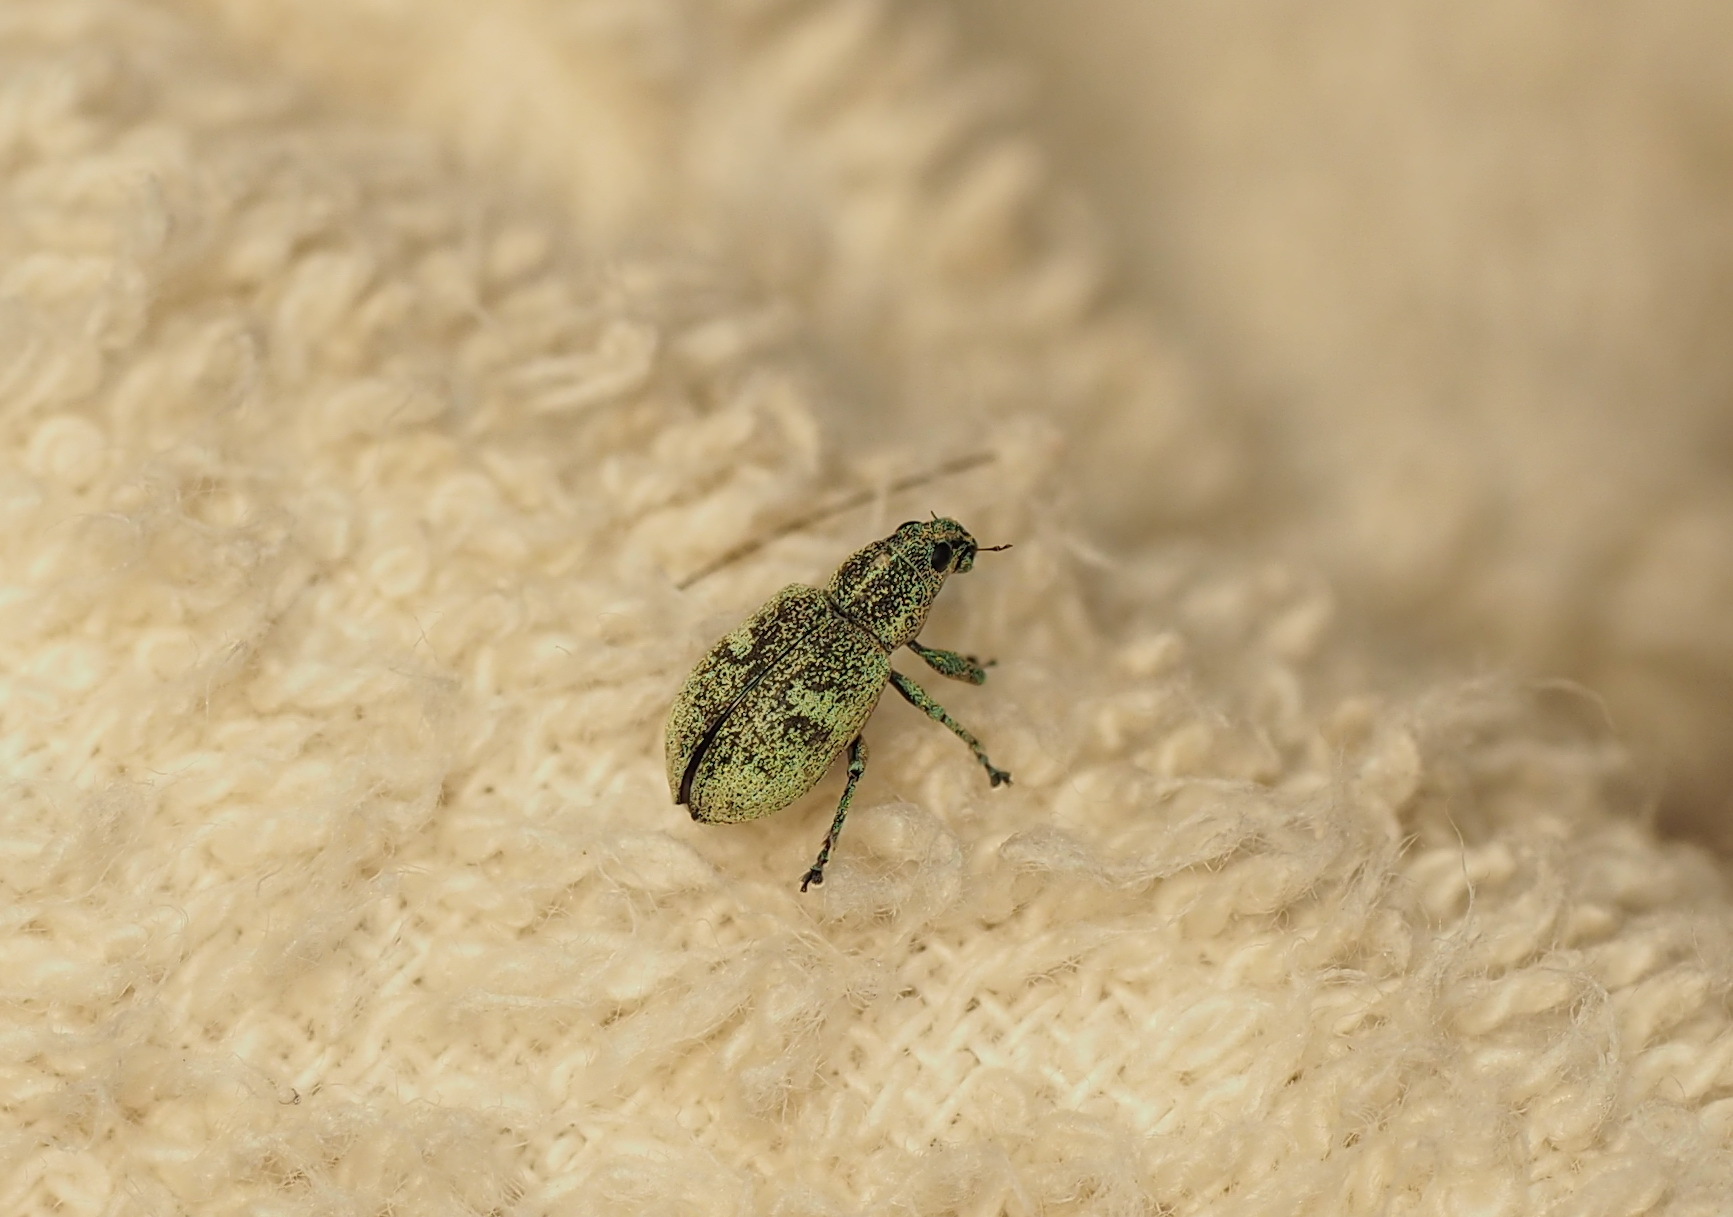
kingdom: Animalia
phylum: Arthropoda
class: Insecta
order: Coleoptera
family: Curculionidae
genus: Eugnathus
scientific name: Eugnathus distinctus
